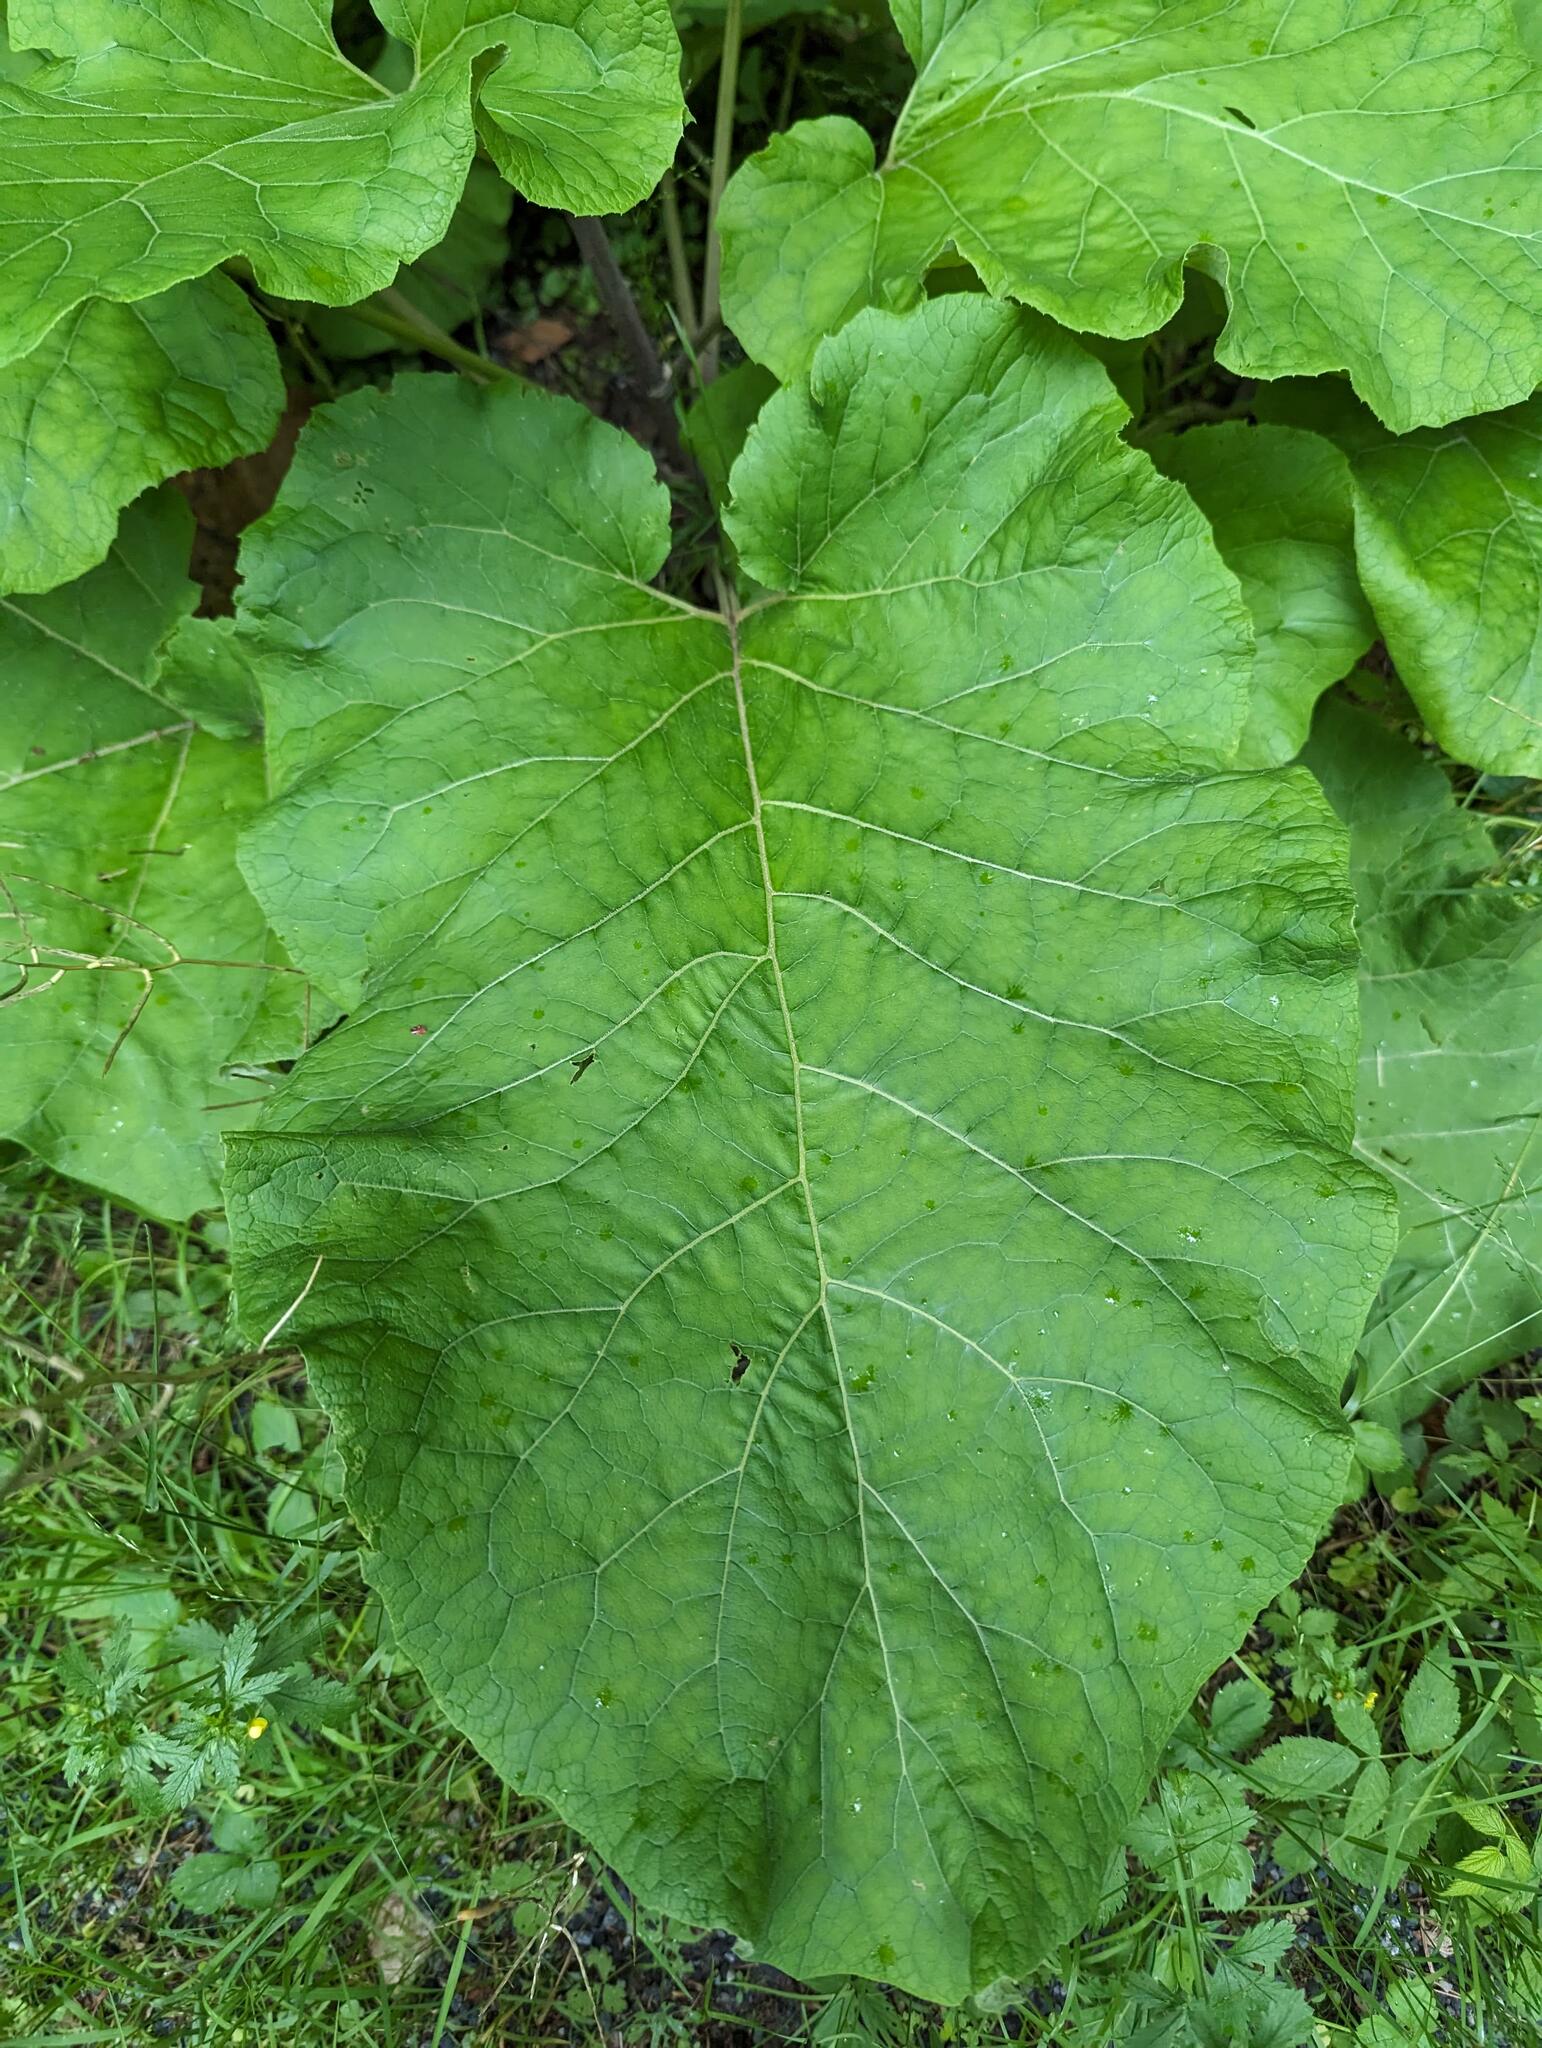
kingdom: Plantae
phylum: Tracheophyta
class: Magnoliopsida
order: Asterales
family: Asteraceae
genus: Arctium
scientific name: Arctium
